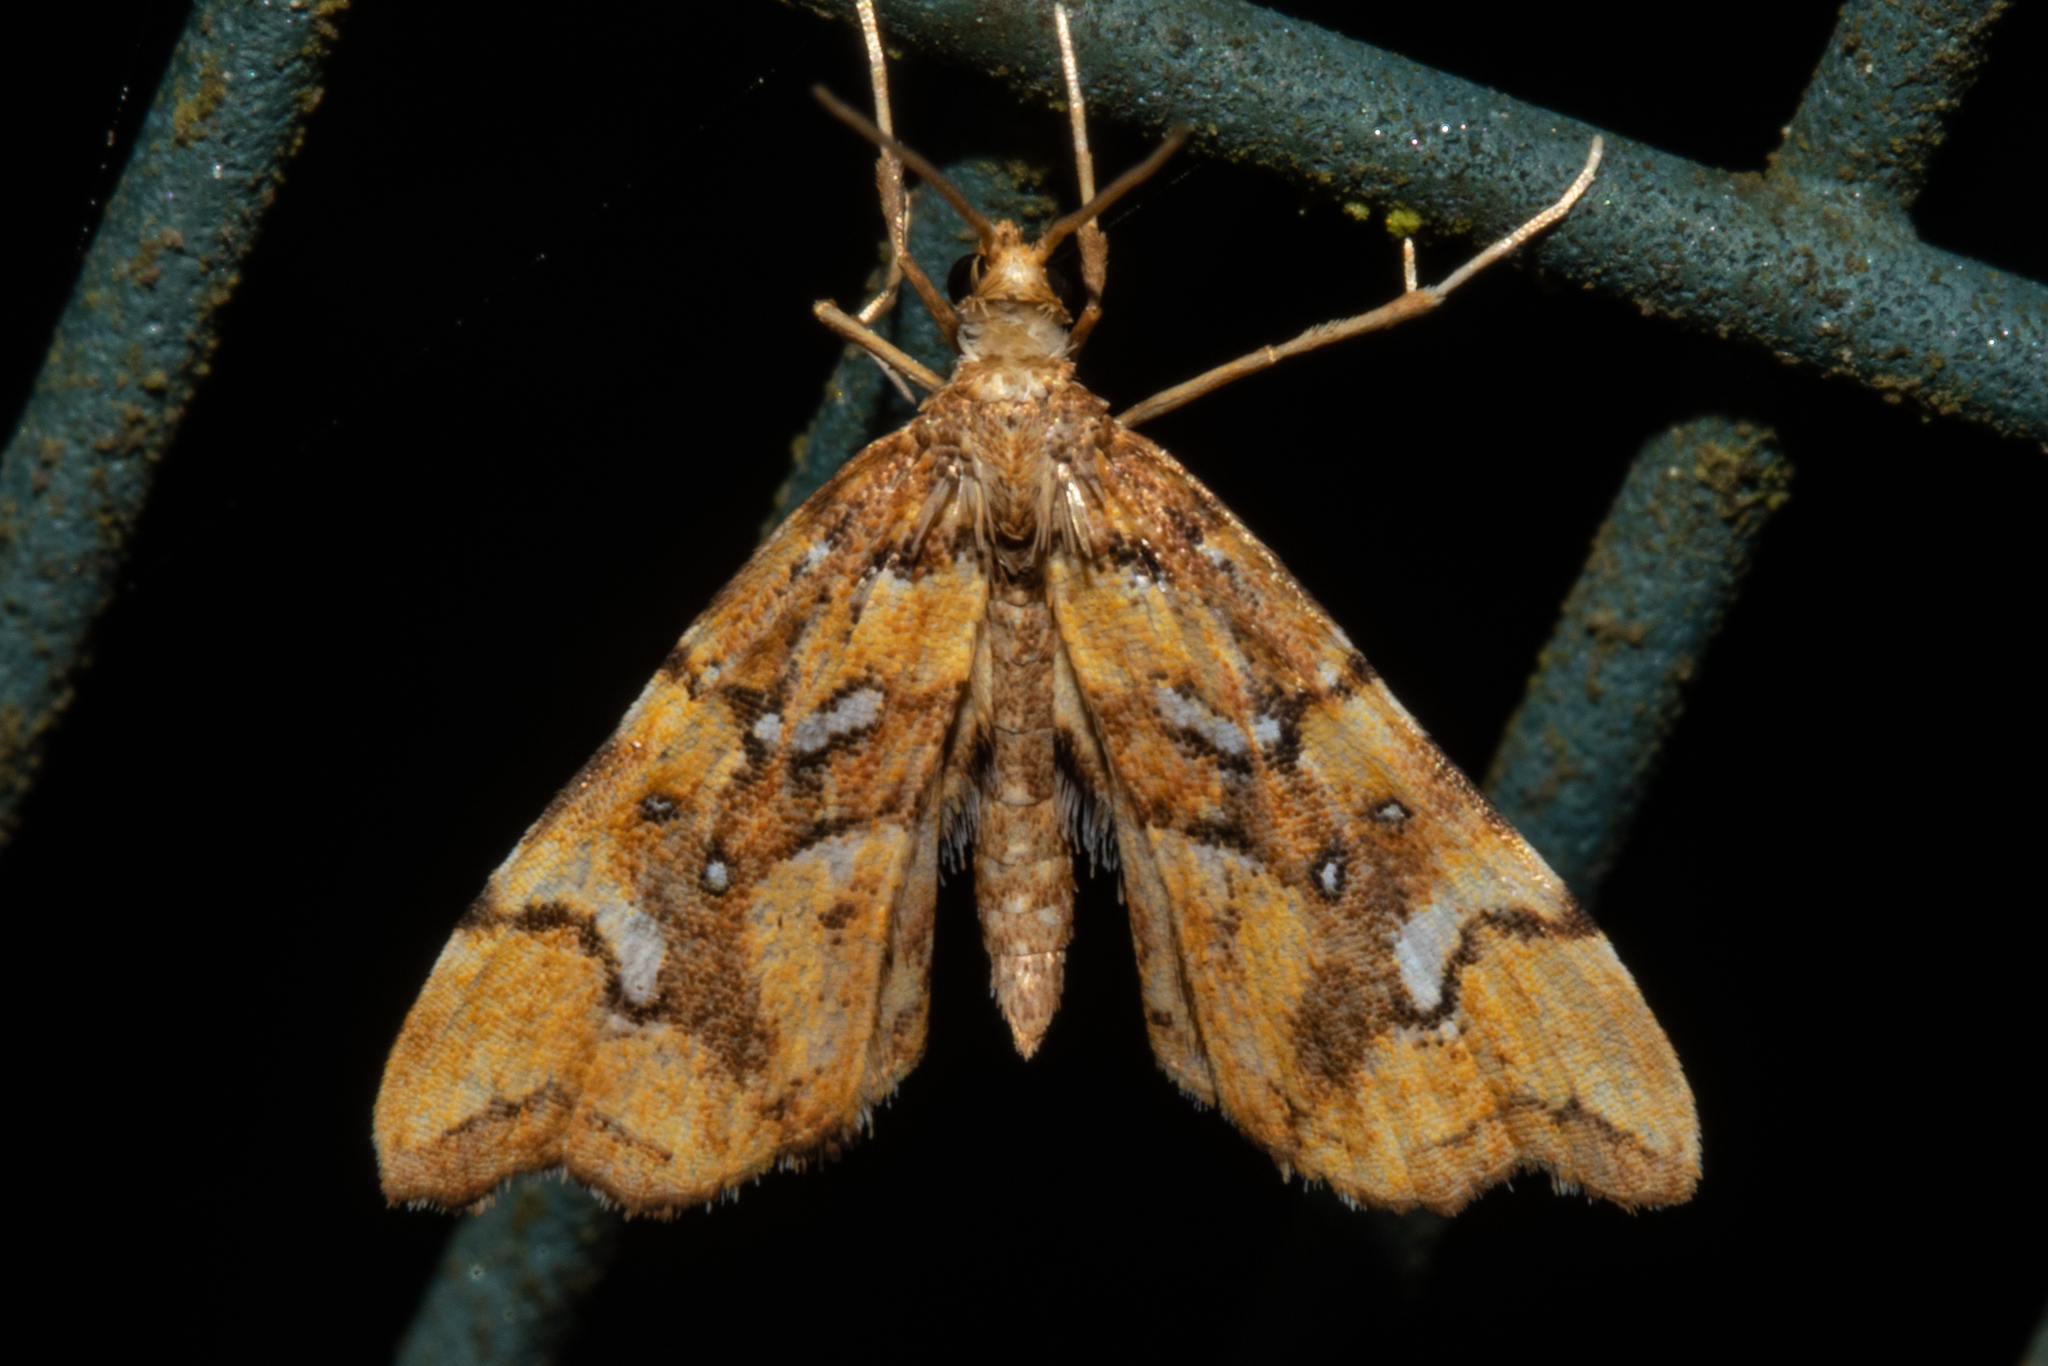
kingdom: Animalia
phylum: Arthropoda
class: Insecta
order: Lepidoptera
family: Pyralidae
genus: Musotima
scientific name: Musotima nitidalis
